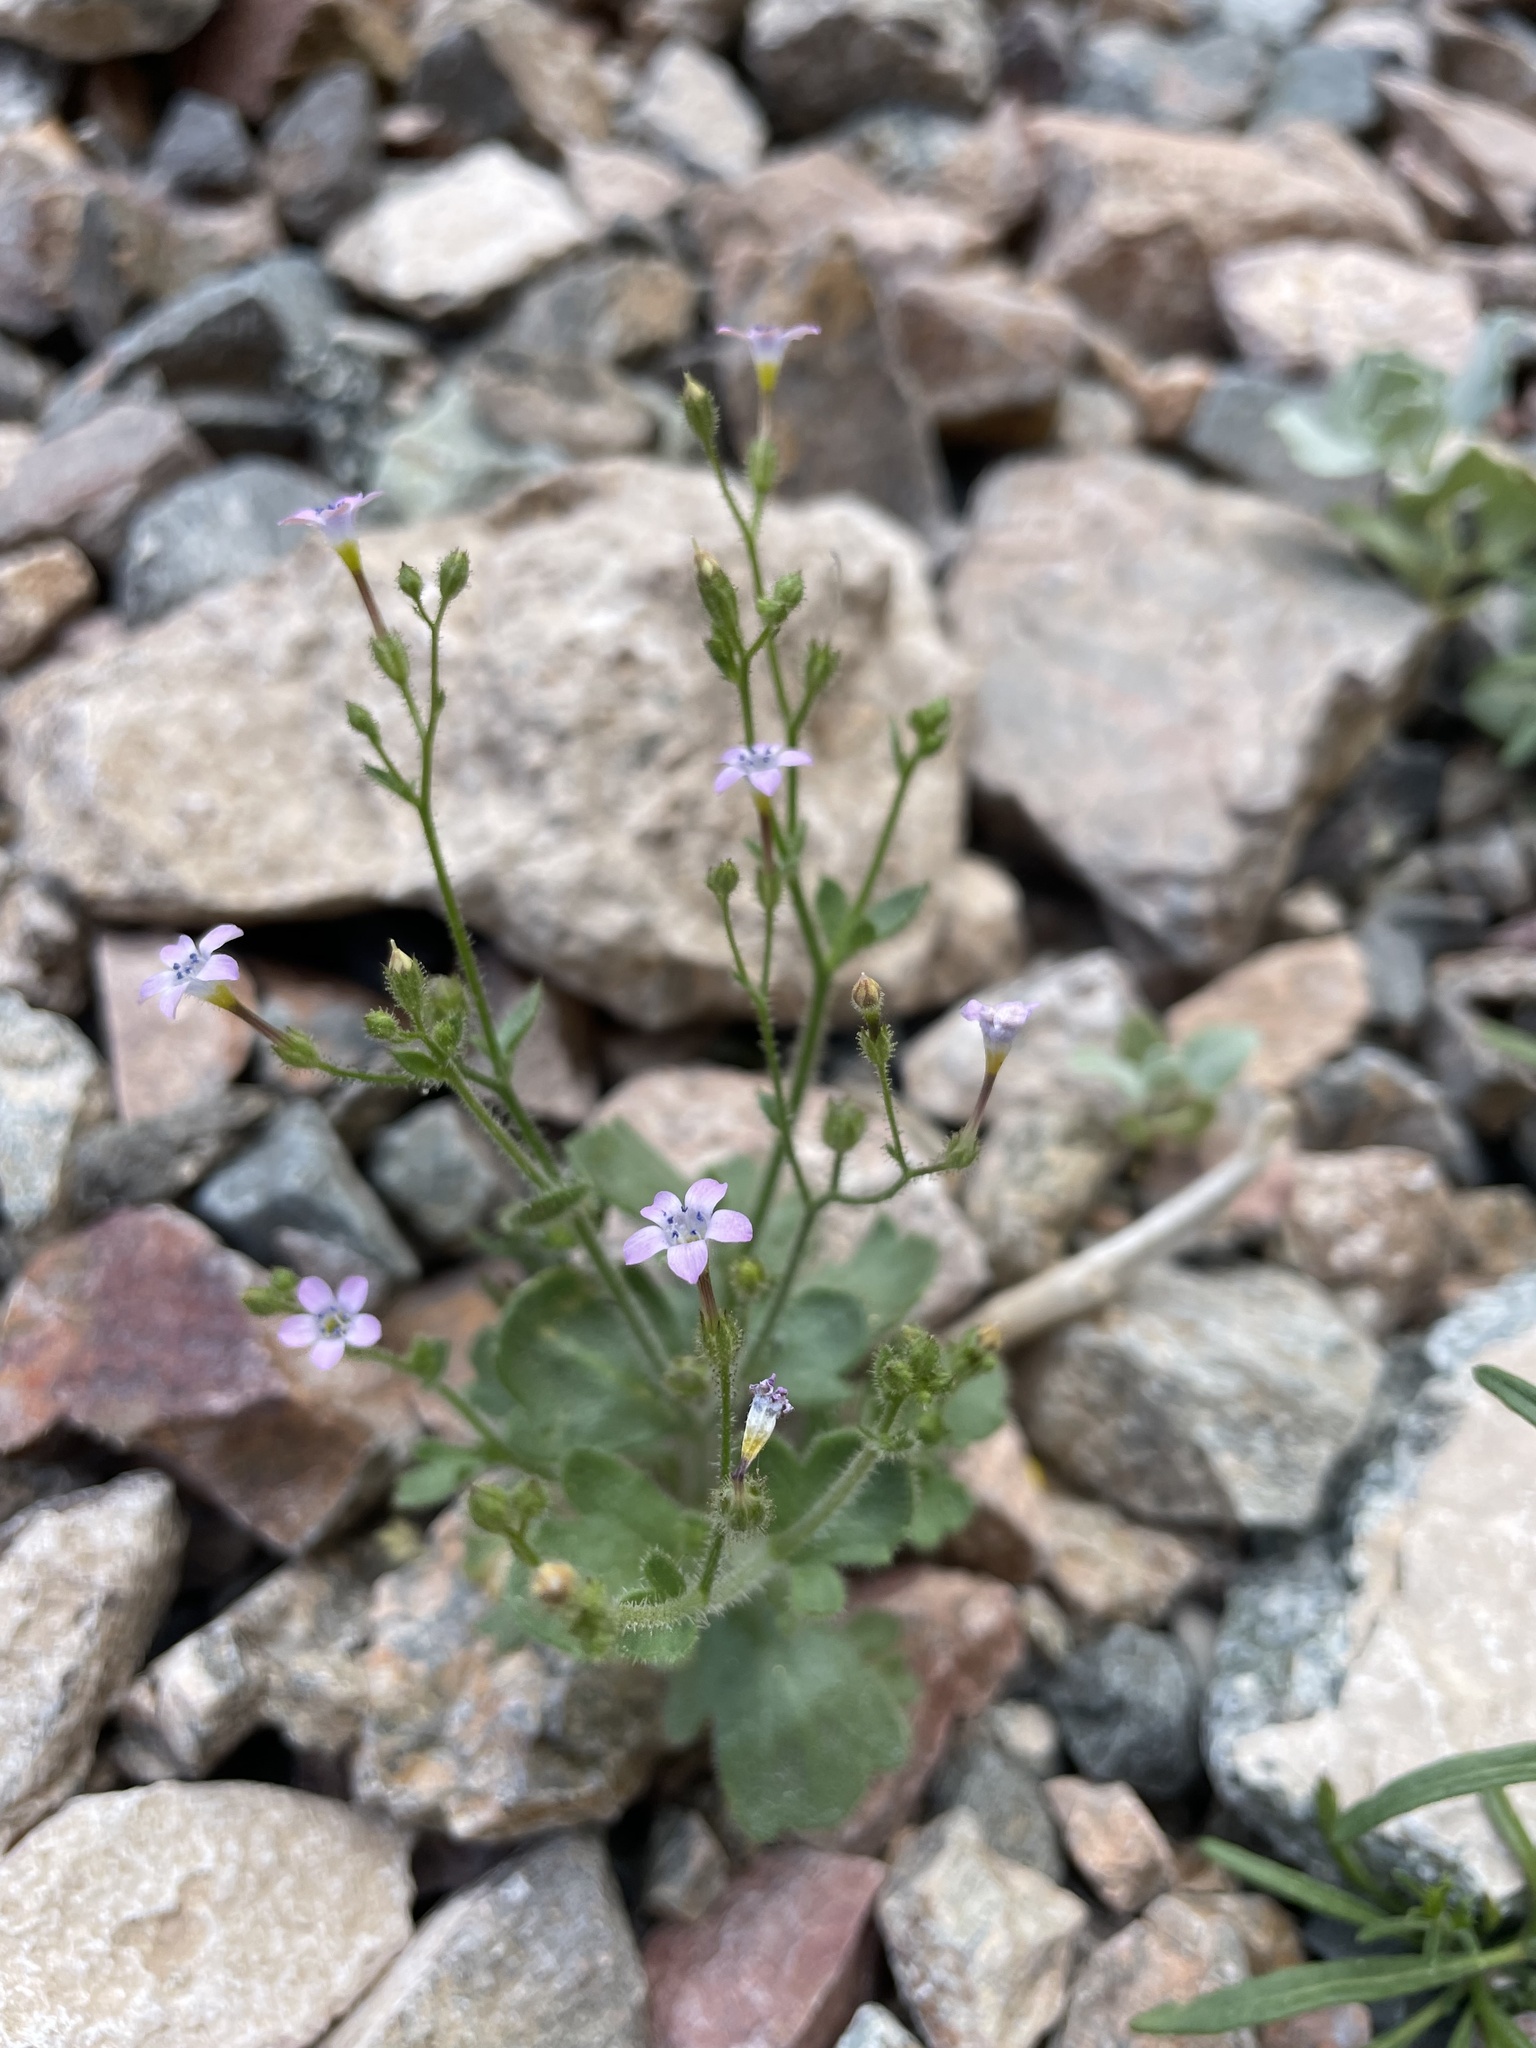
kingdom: Plantae
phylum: Tracheophyta
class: Magnoliopsida
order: Ericales
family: Polemoniaceae
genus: Gilia
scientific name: Gilia scopulorum
